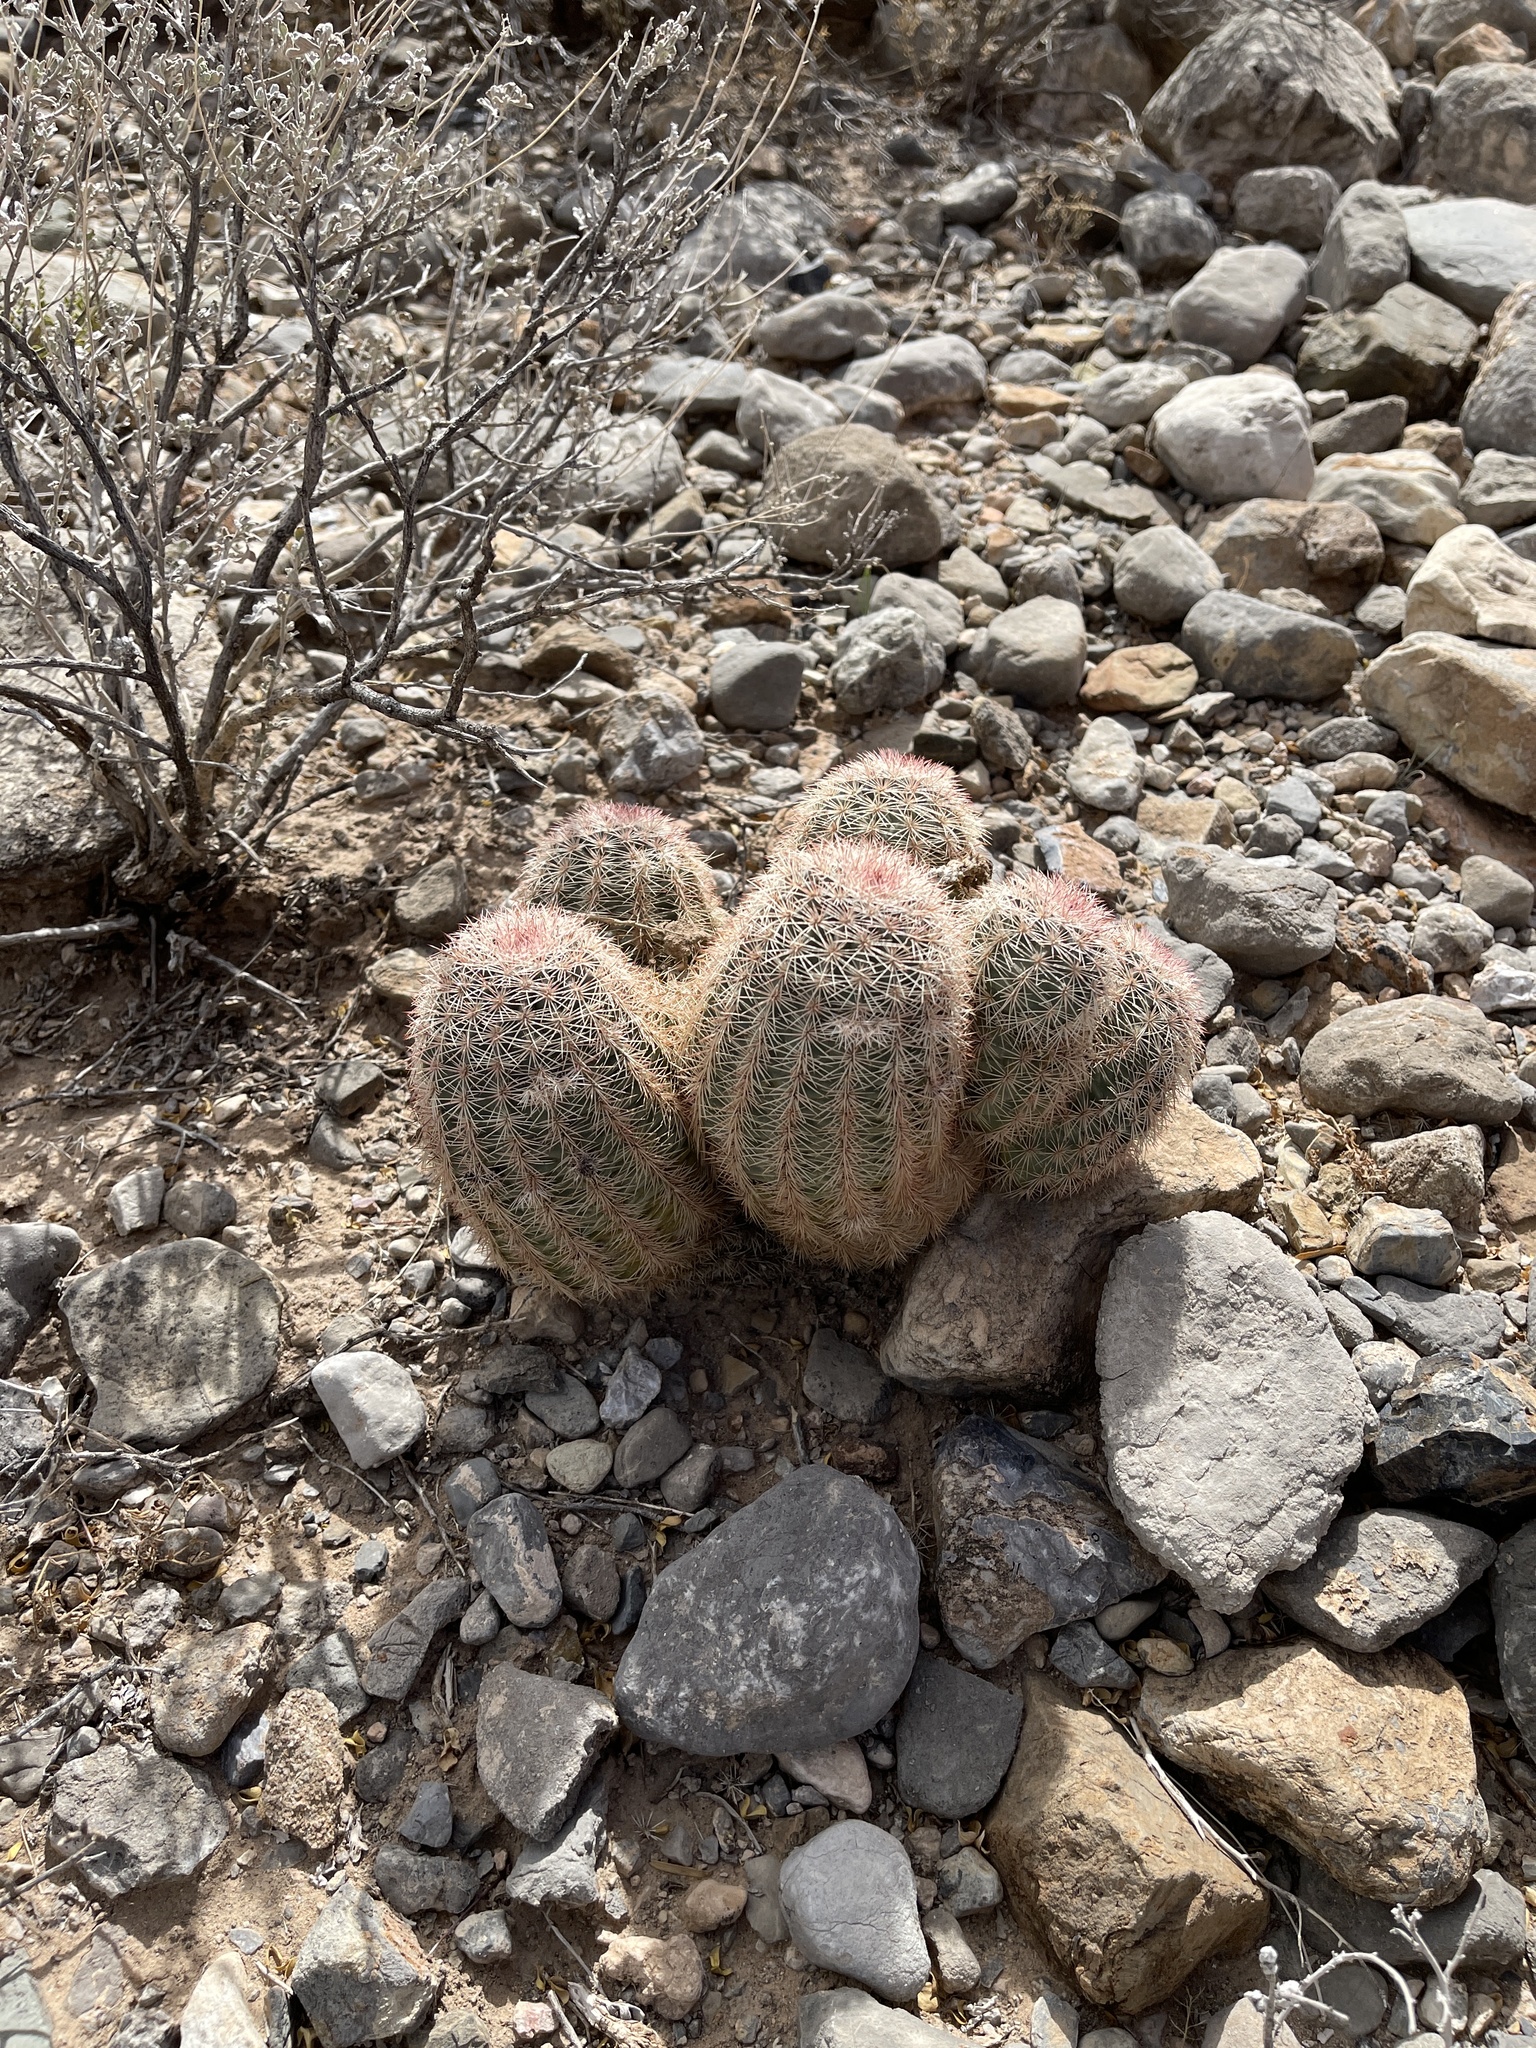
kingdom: Plantae
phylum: Tracheophyta
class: Magnoliopsida
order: Caryophyllales
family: Cactaceae
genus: Echinocereus
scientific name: Echinocereus dasyacanthus
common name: Spiny hedgehog cactus
